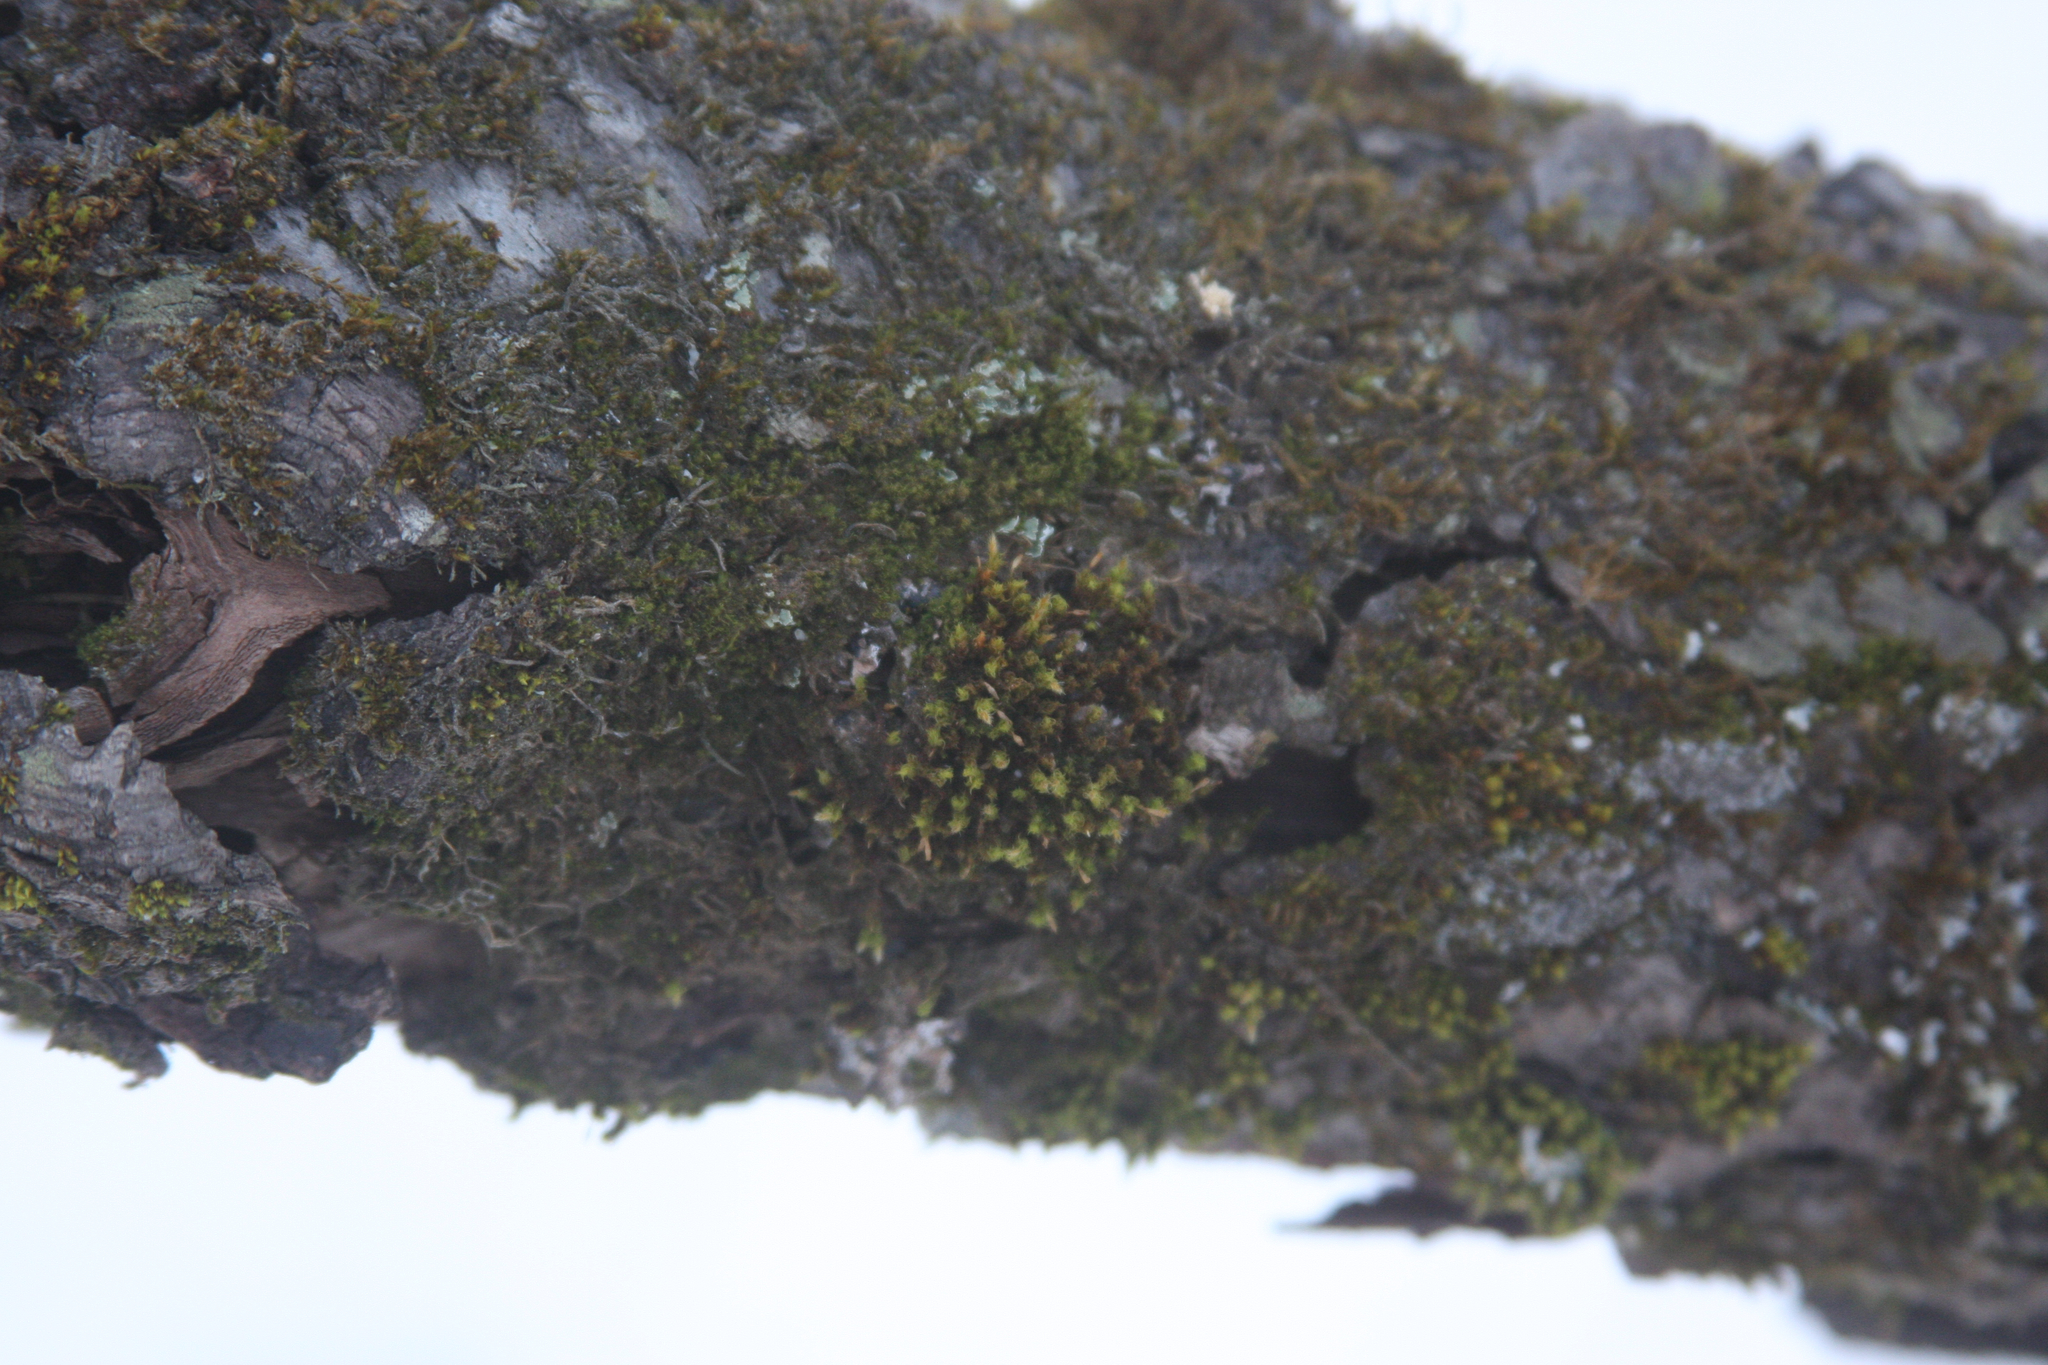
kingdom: Plantae
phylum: Bryophyta
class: Bryopsida
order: Orthotrichales
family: Orthotrichaceae
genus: Ulota
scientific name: Ulota crispa
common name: Crisped pincushion moss
